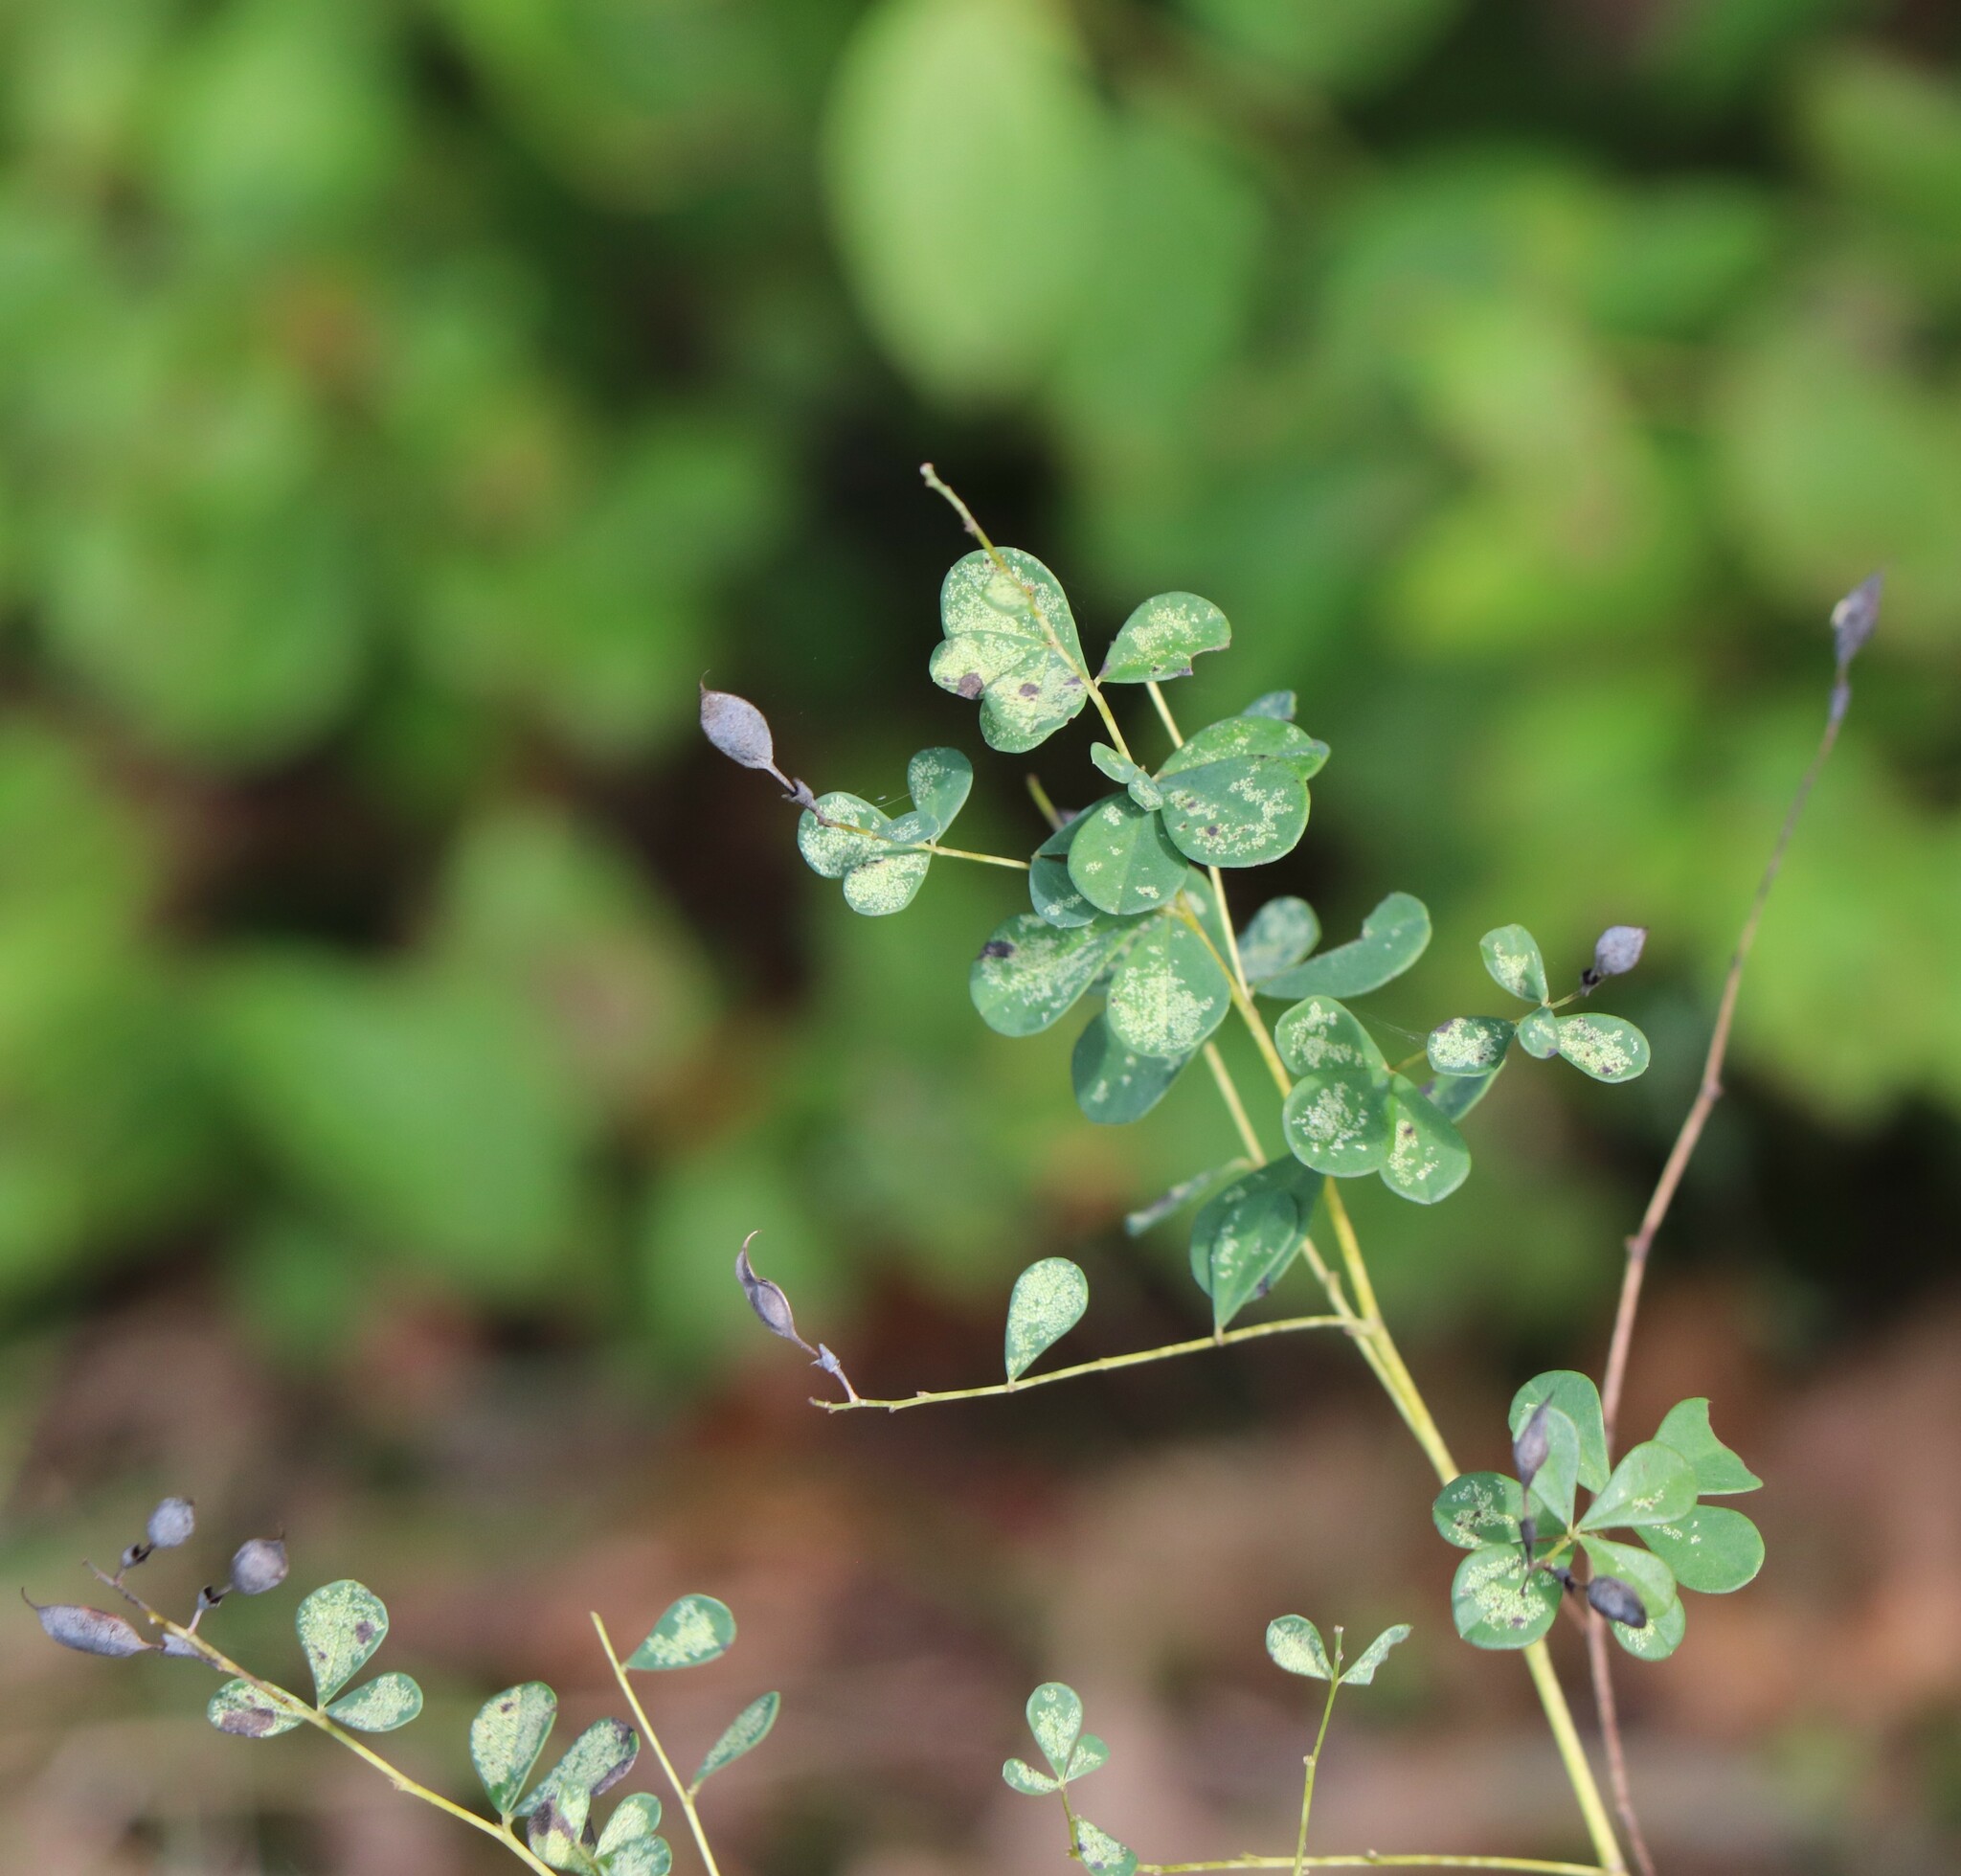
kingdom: Plantae
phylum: Tracheophyta
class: Magnoliopsida
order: Fabales
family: Fabaceae
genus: Baptisia
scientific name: Baptisia tinctoria
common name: Wild indigo
